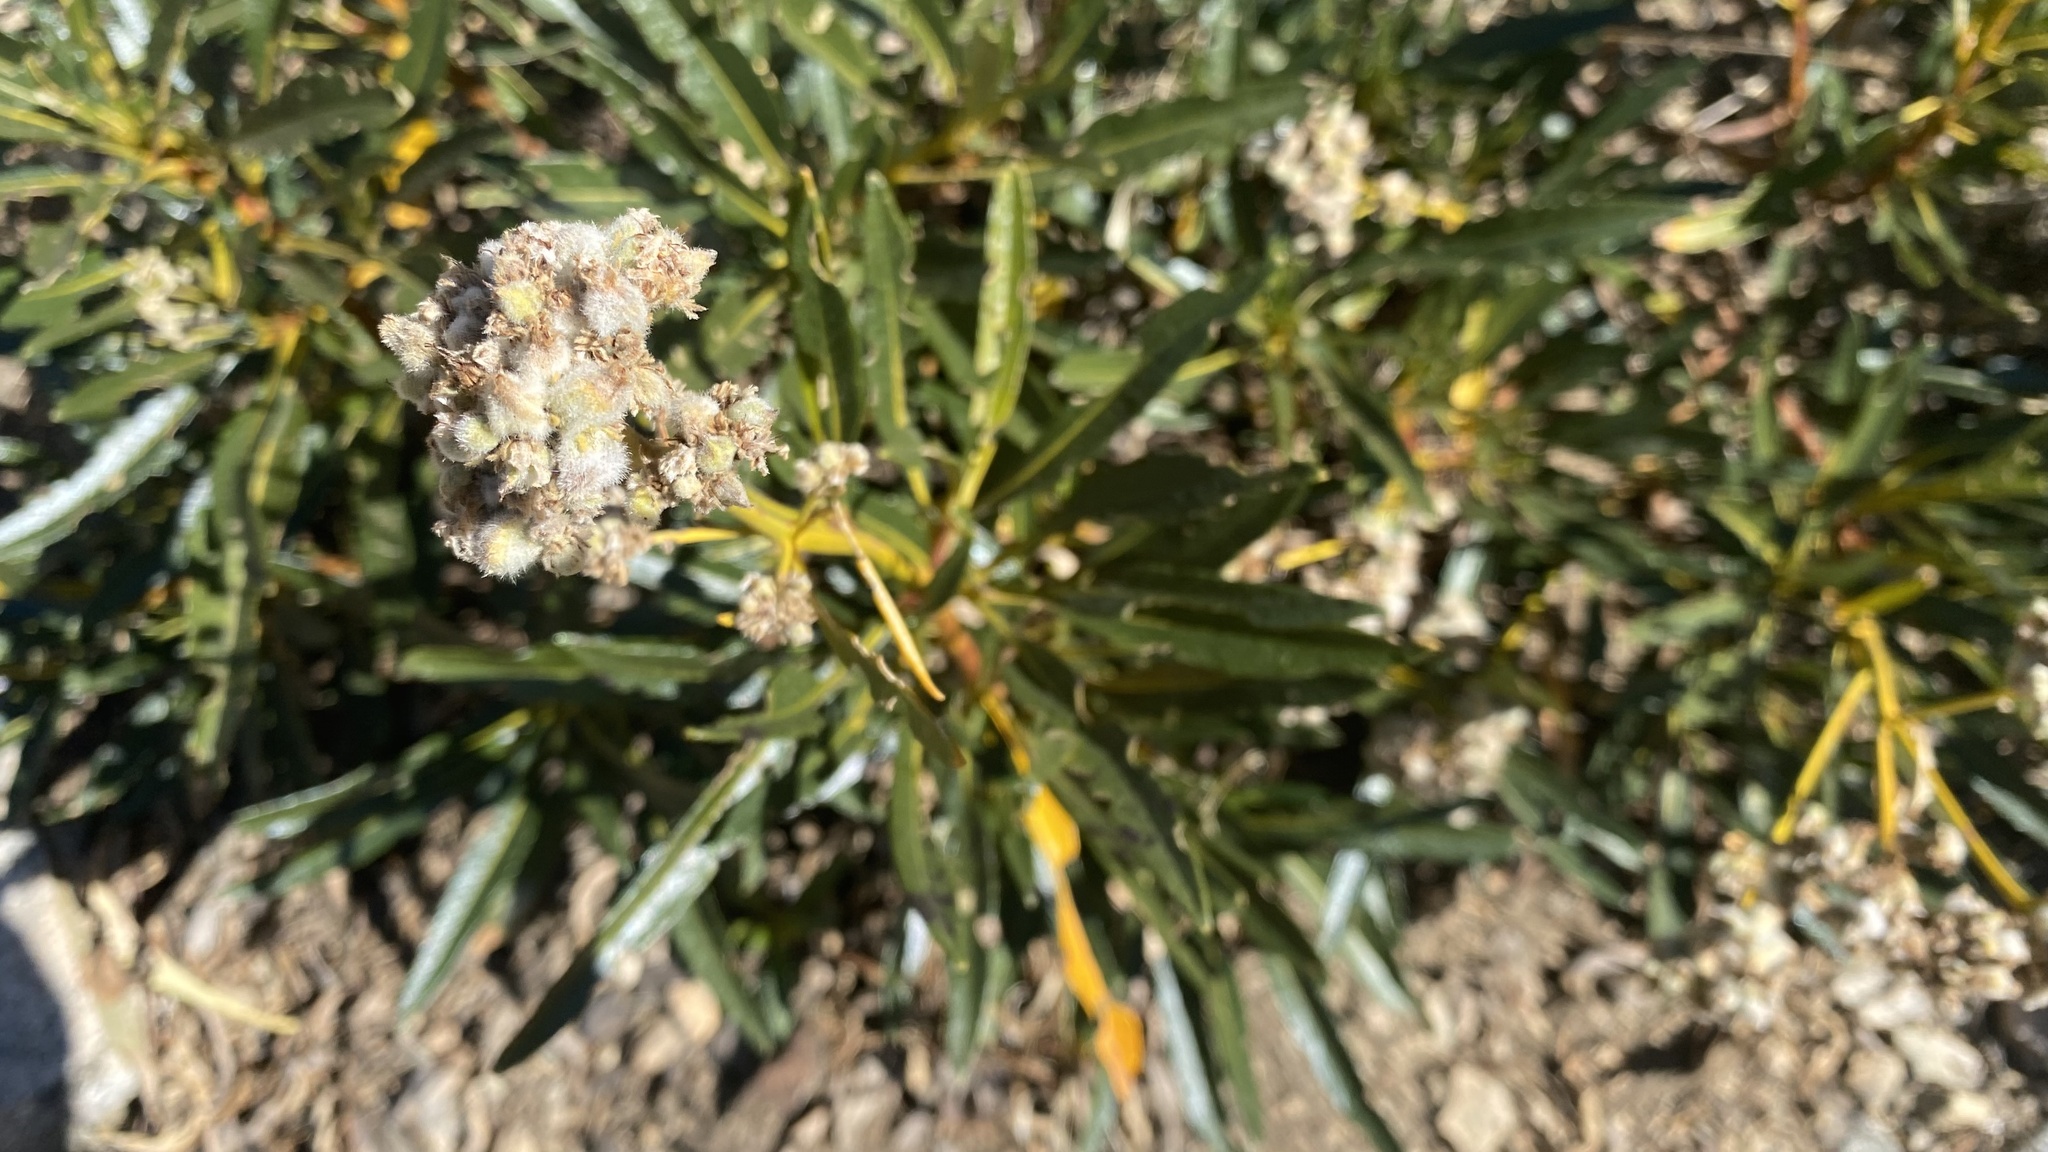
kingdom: Plantae
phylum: Tracheophyta
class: Magnoliopsida
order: Boraginales
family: Namaceae
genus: Eriodictyon
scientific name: Eriodictyon trichocalyx
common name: Hairy yerba-santa
